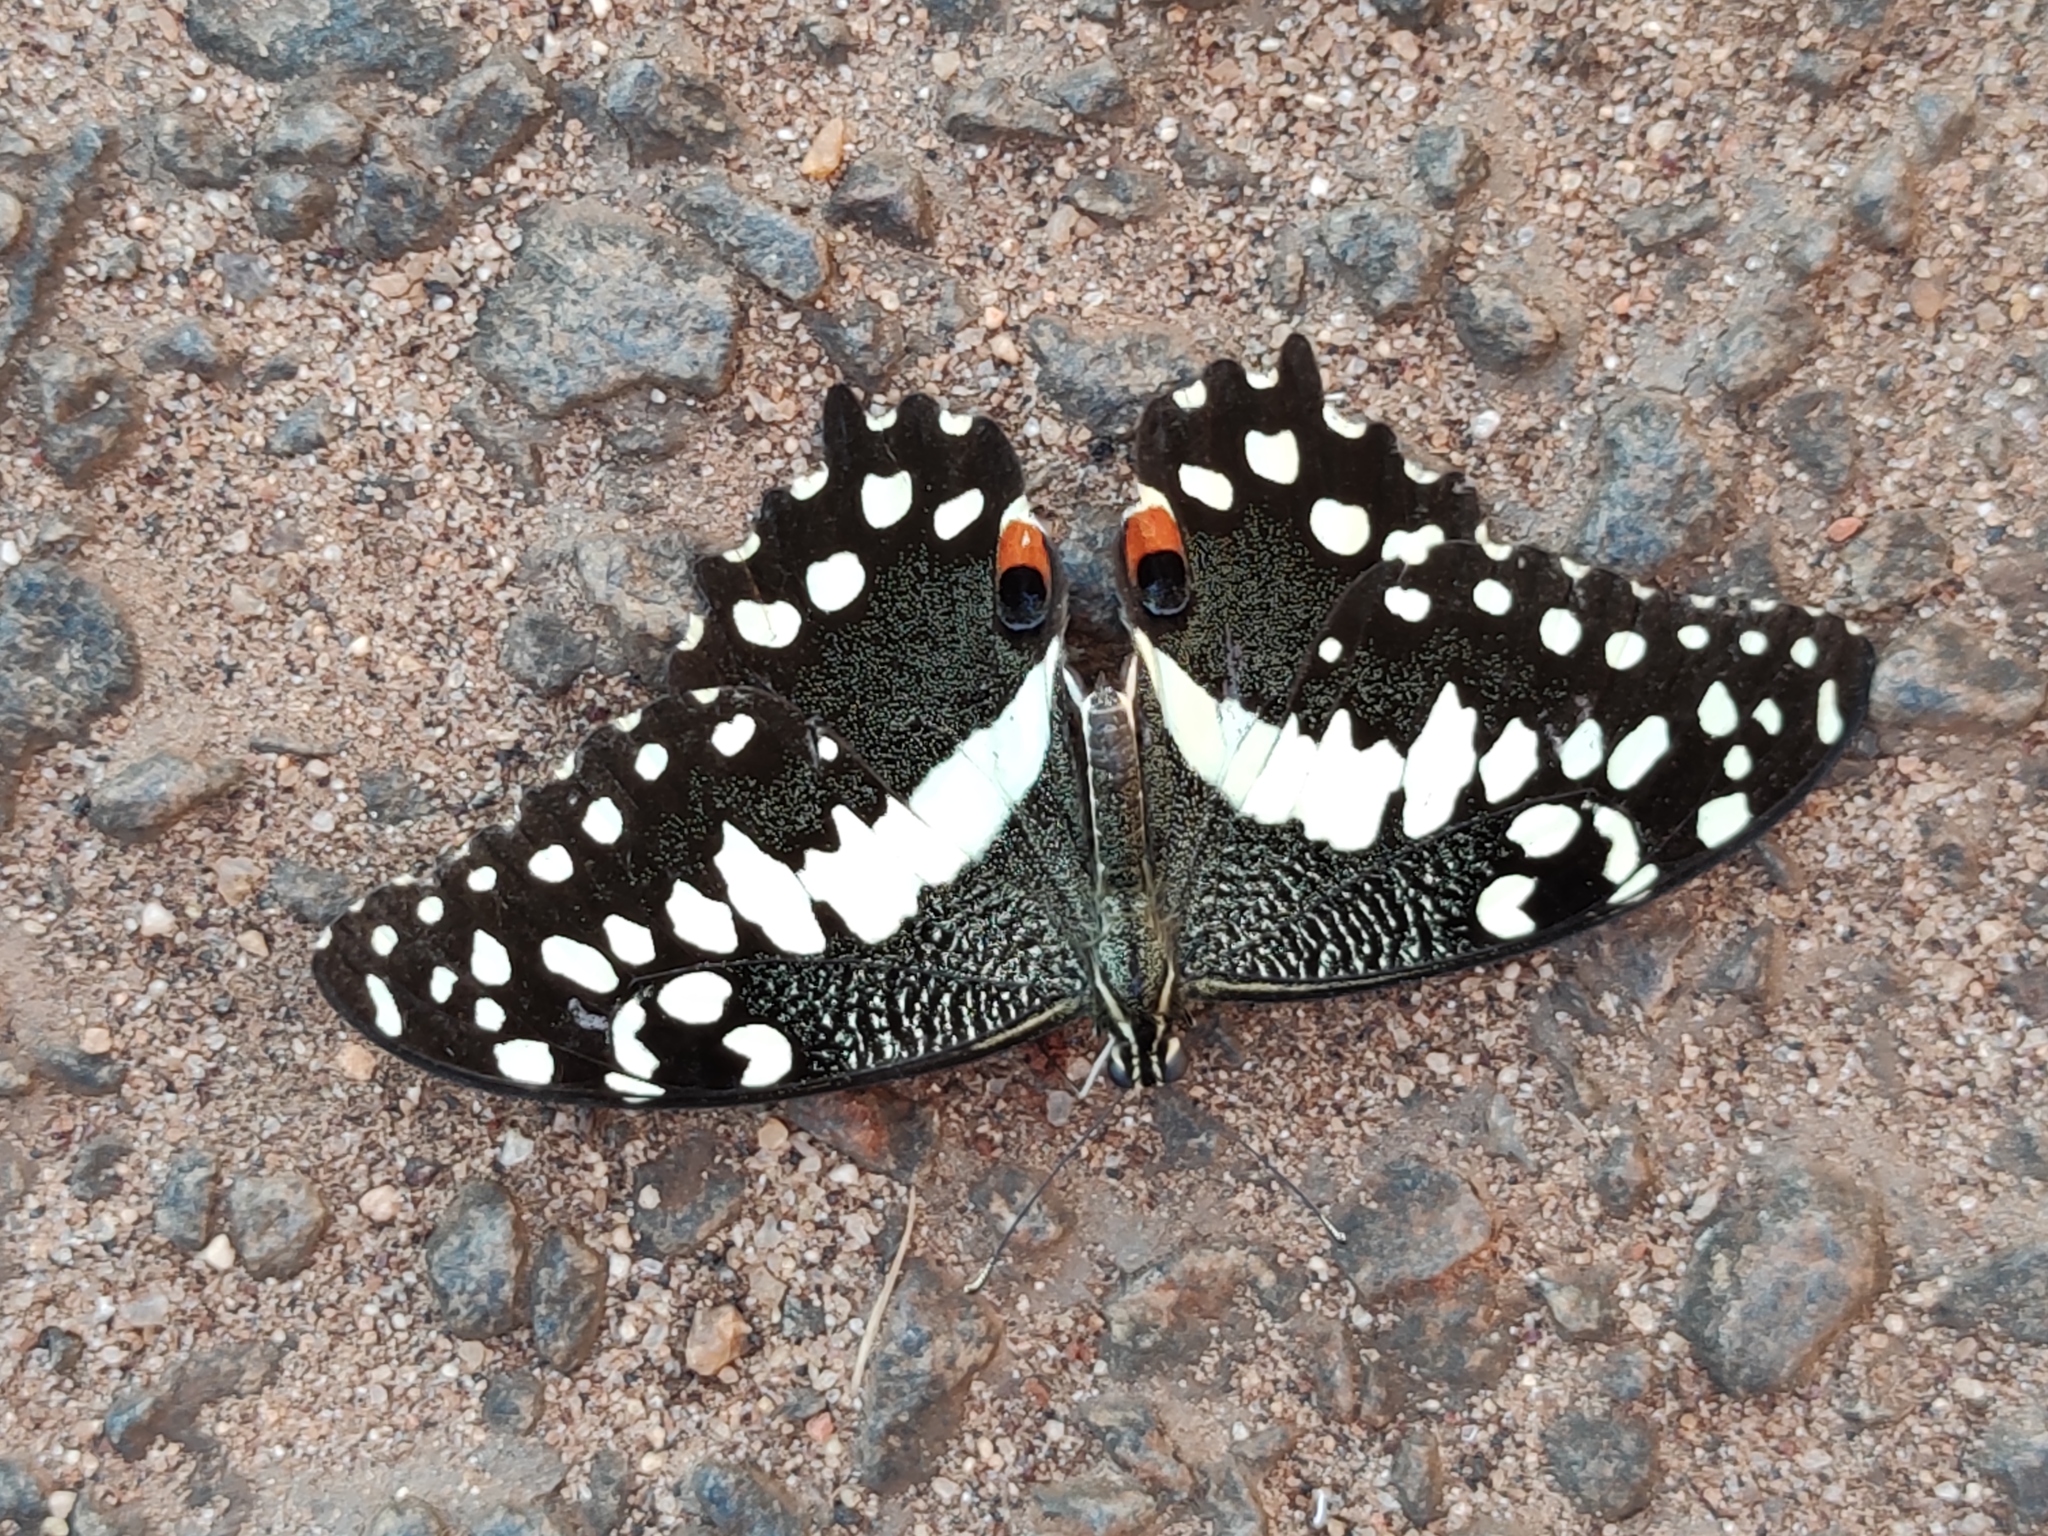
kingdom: Animalia
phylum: Arthropoda
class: Insecta
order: Lepidoptera
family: Papilionidae
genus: Papilio
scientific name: Papilio demodocus
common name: Christmas butterfly
